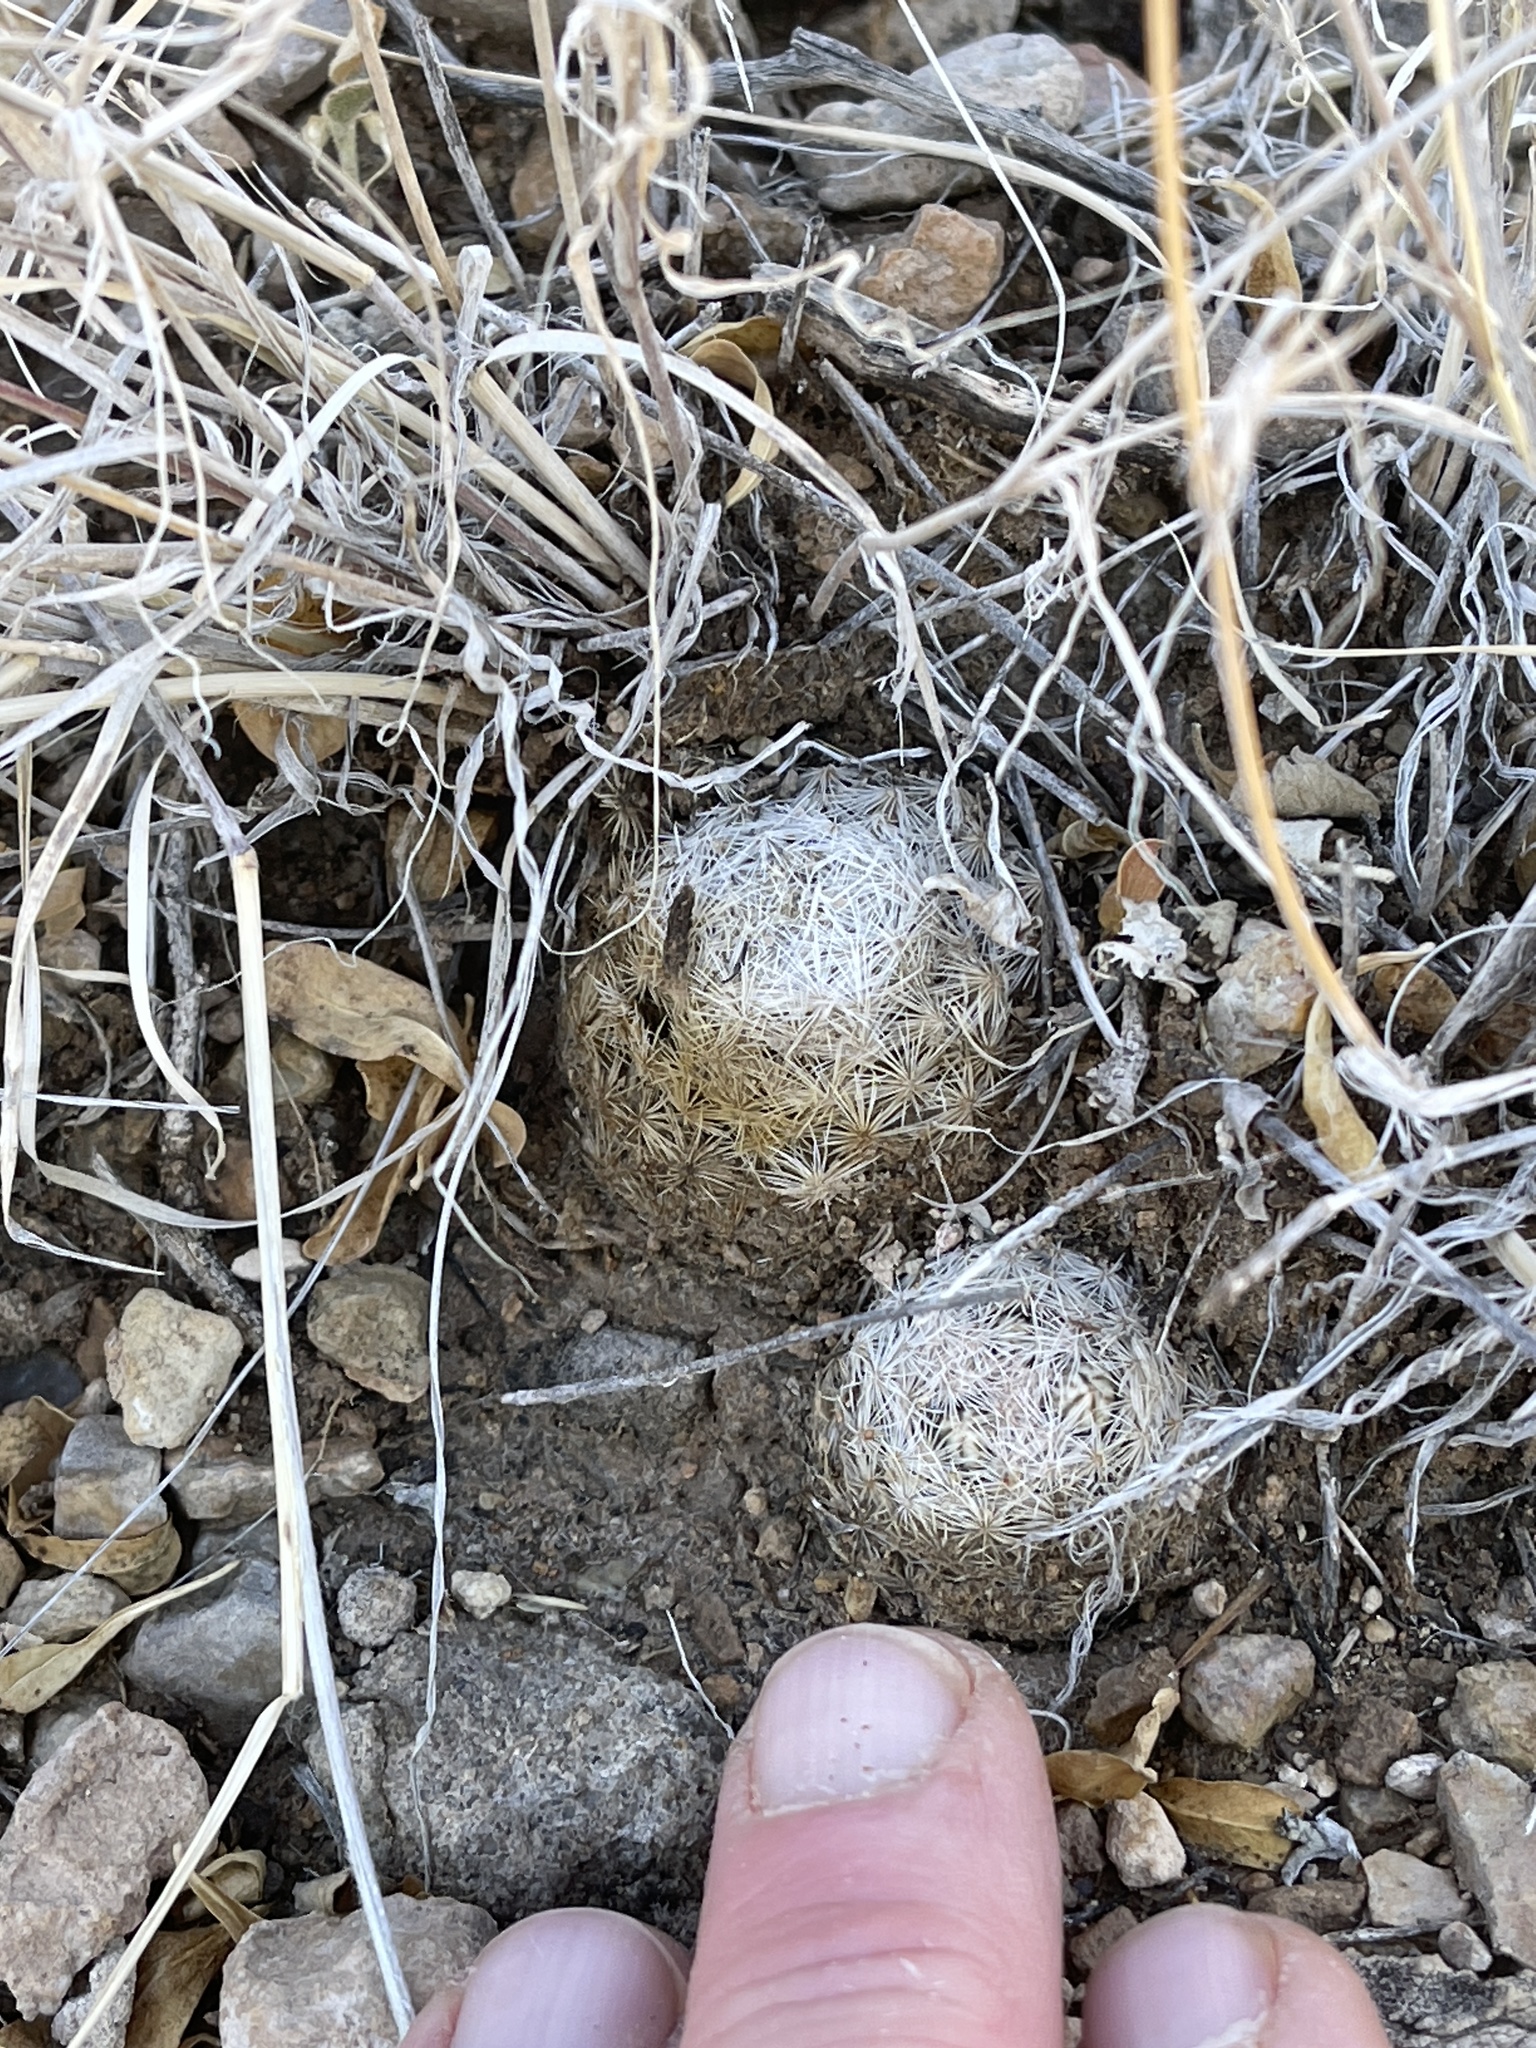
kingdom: Plantae
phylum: Tracheophyta
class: Magnoliopsida
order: Caryophyllales
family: Cactaceae
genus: Mammillaria
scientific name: Mammillaria lasiacantha
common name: Lace-spine nipple cactus
